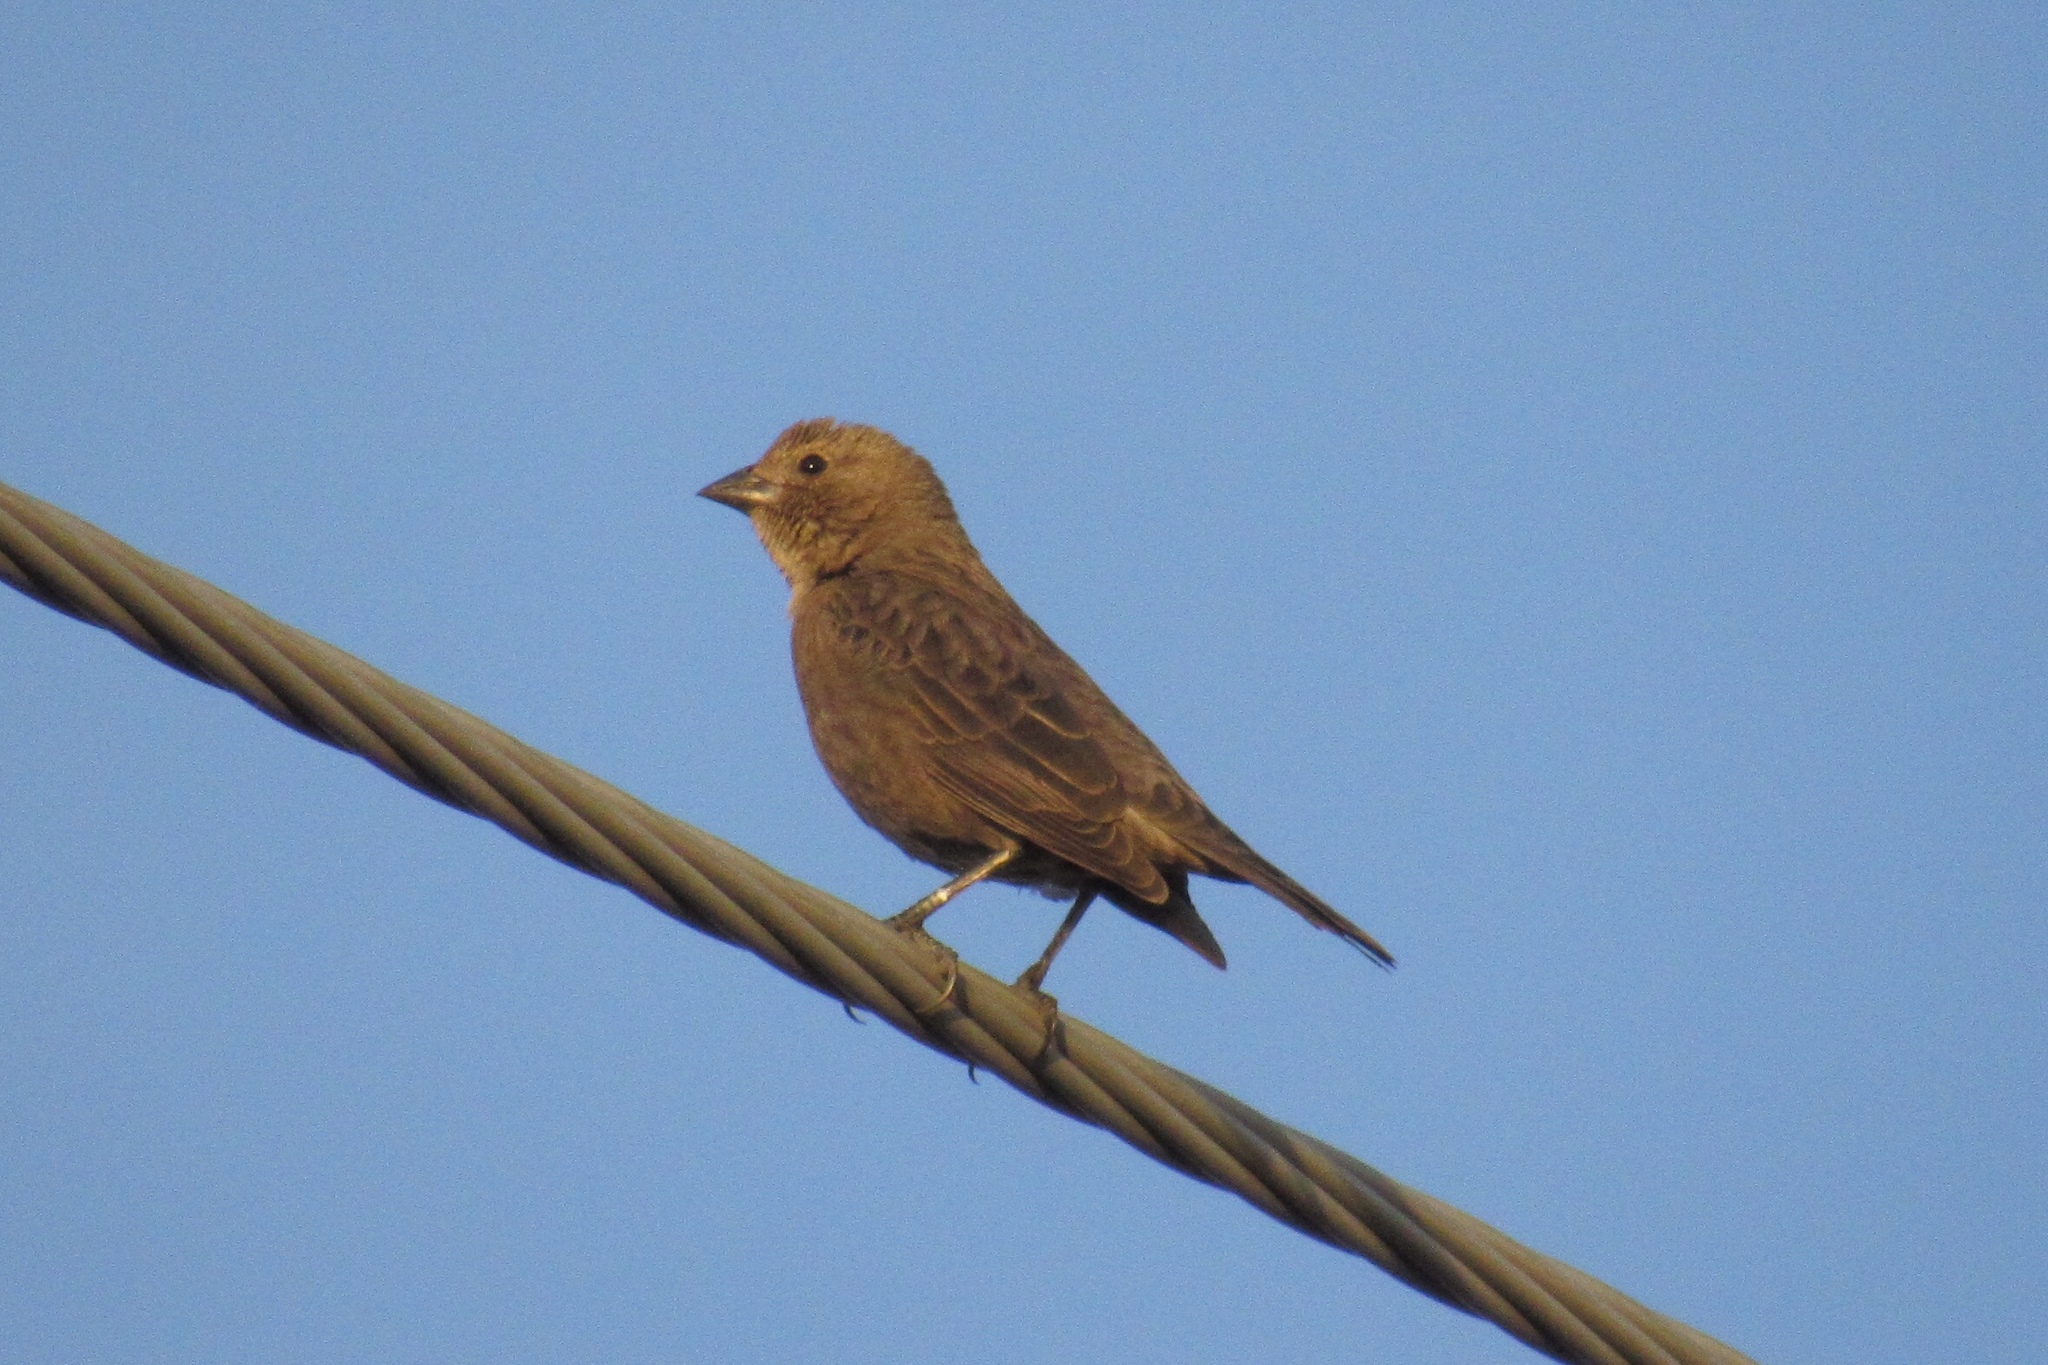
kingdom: Animalia
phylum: Chordata
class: Aves
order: Passeriformes
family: Icteridae
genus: Molothrus
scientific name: Molothrus ater
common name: Brown-headed cowbird
